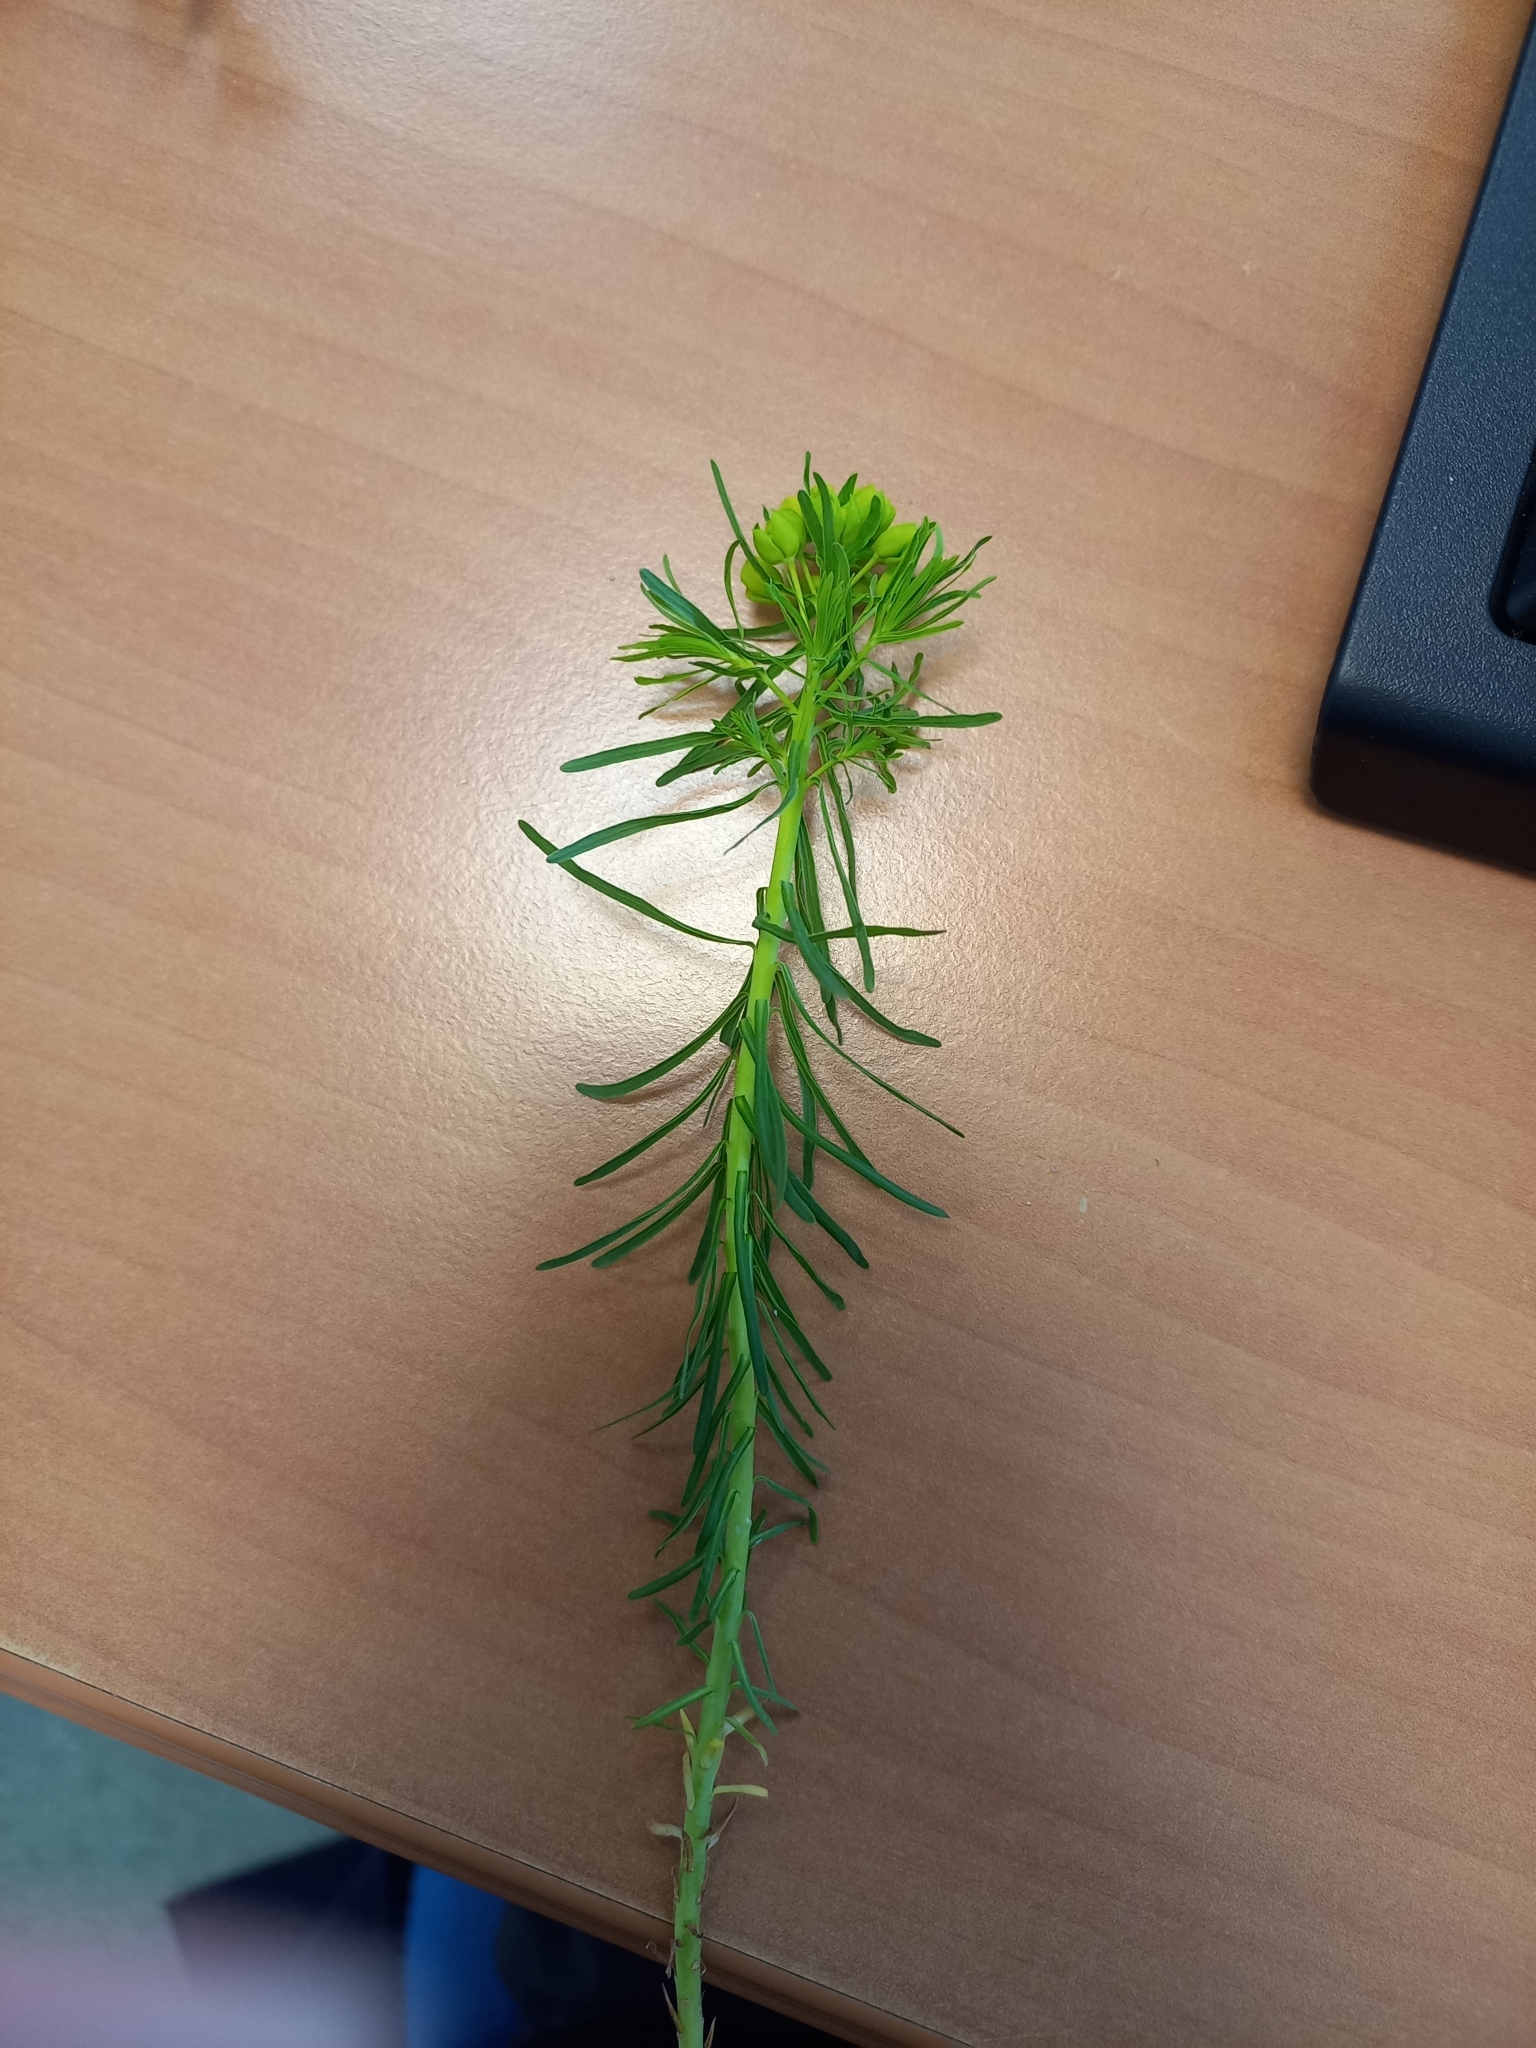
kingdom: Plantae
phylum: Tracheophyta
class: Magnoliopsida
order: Malpighiales
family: Euphorbiaceae
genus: Euphorbia
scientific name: Euphorbia cyparissias
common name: Cypress spurge
